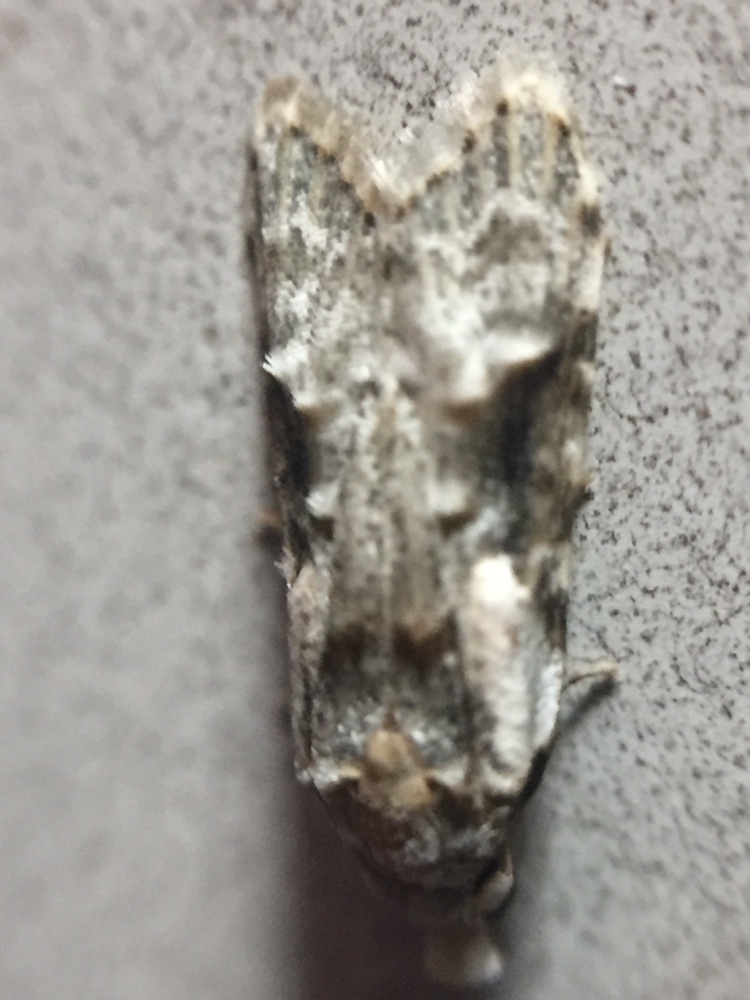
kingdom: Animalia
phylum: Arthropoda
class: Insecta
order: Lepidoptera
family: Carposinidae
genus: Coscinoptycha
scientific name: Coscinoptycha improbana
